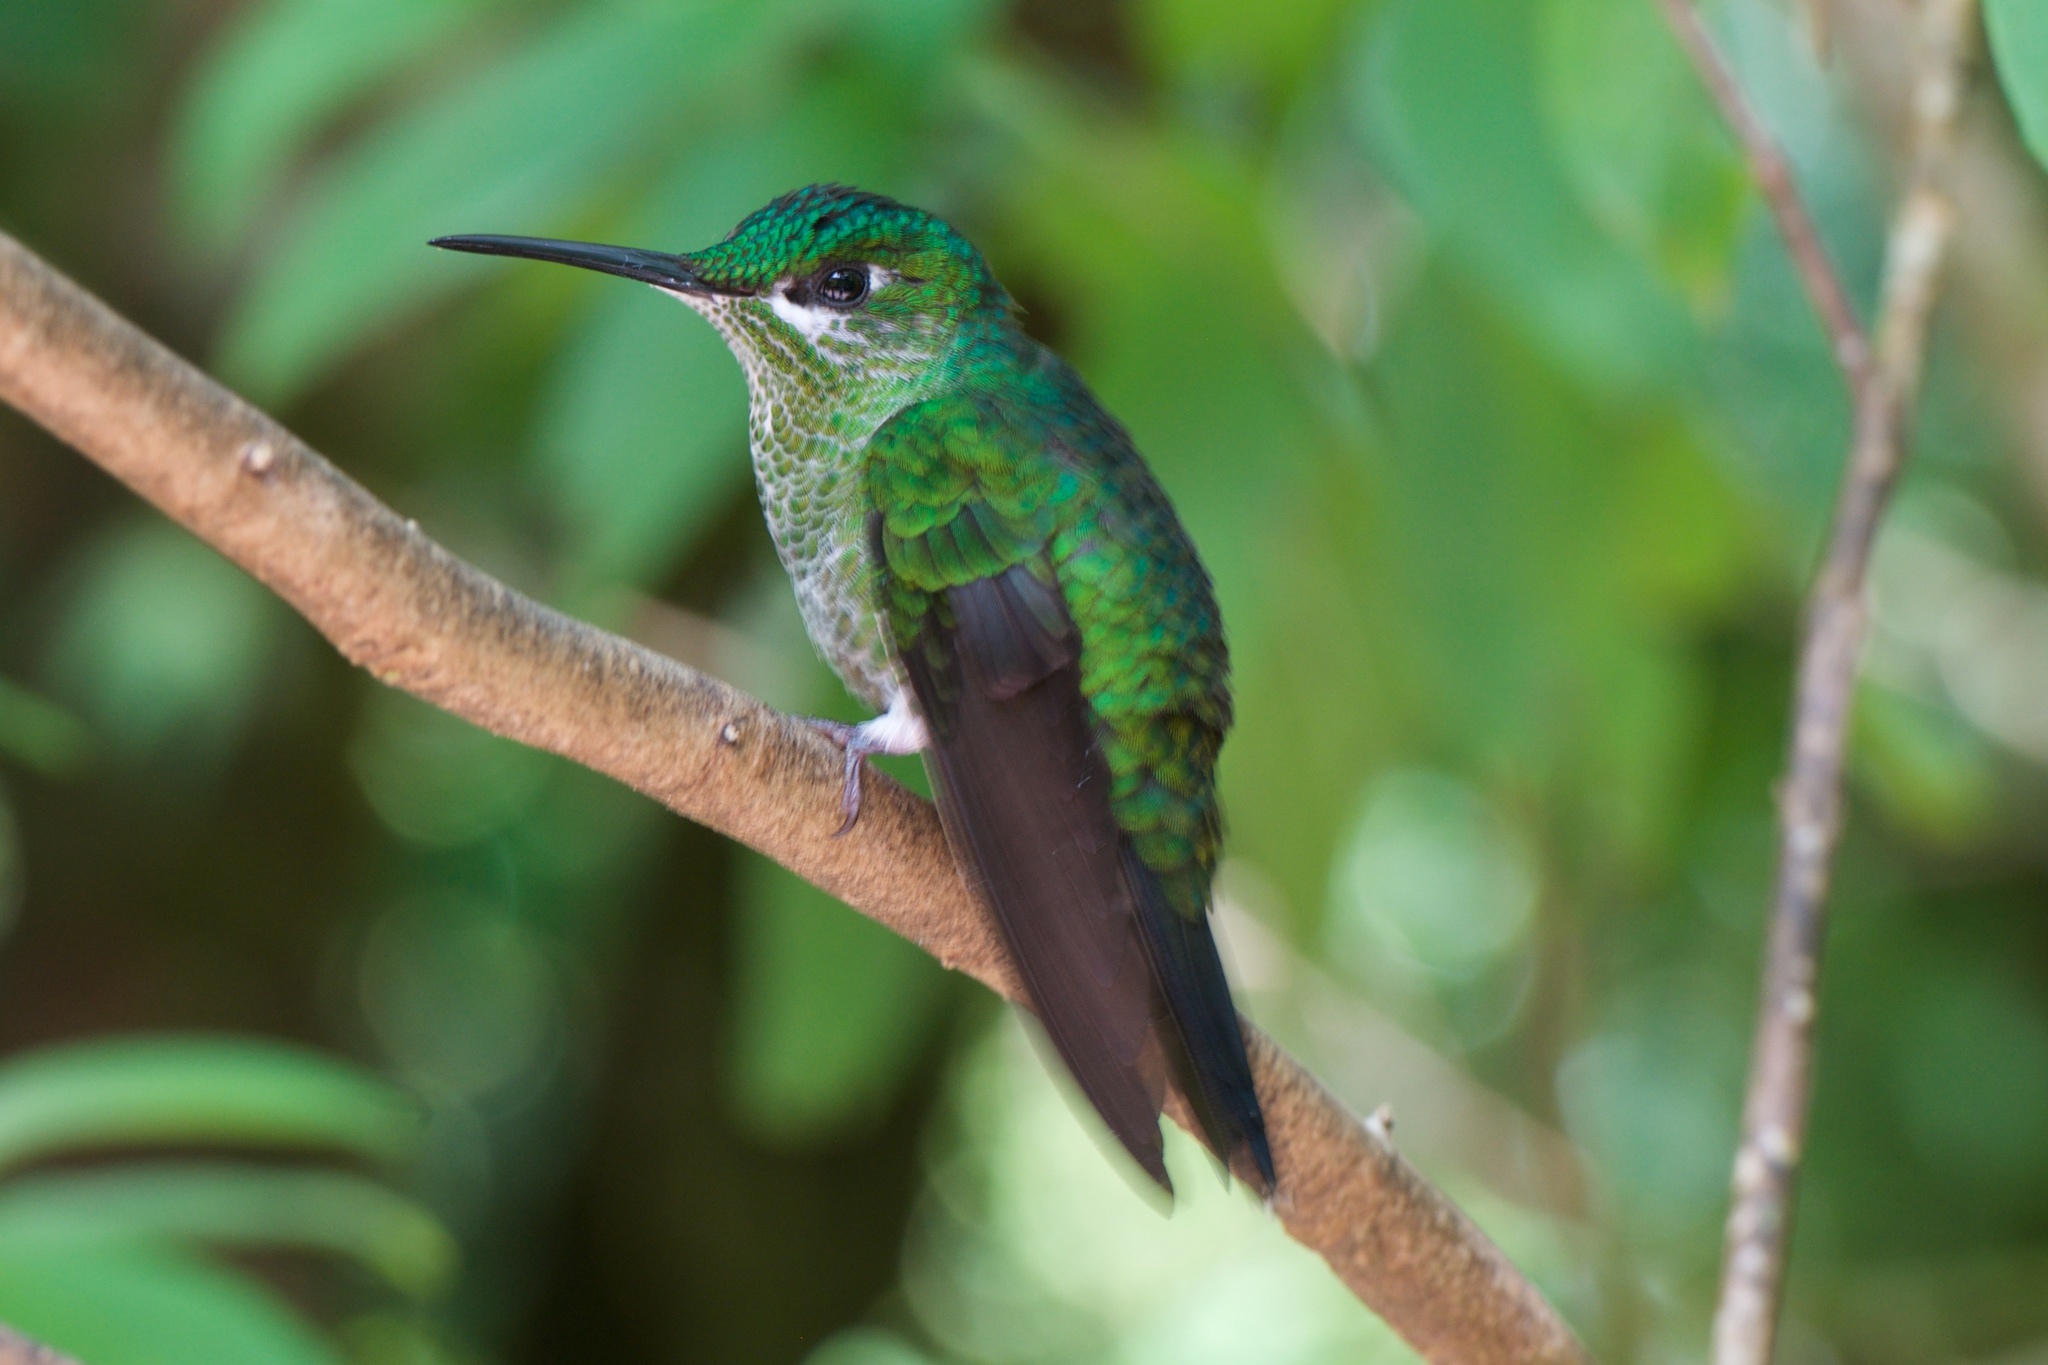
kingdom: Animalia
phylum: Chordata
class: Aves
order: Apodiformes
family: Trochilidae
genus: Heliodoxa
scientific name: Heliodoxa jacula
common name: Green-crowned brilliant
